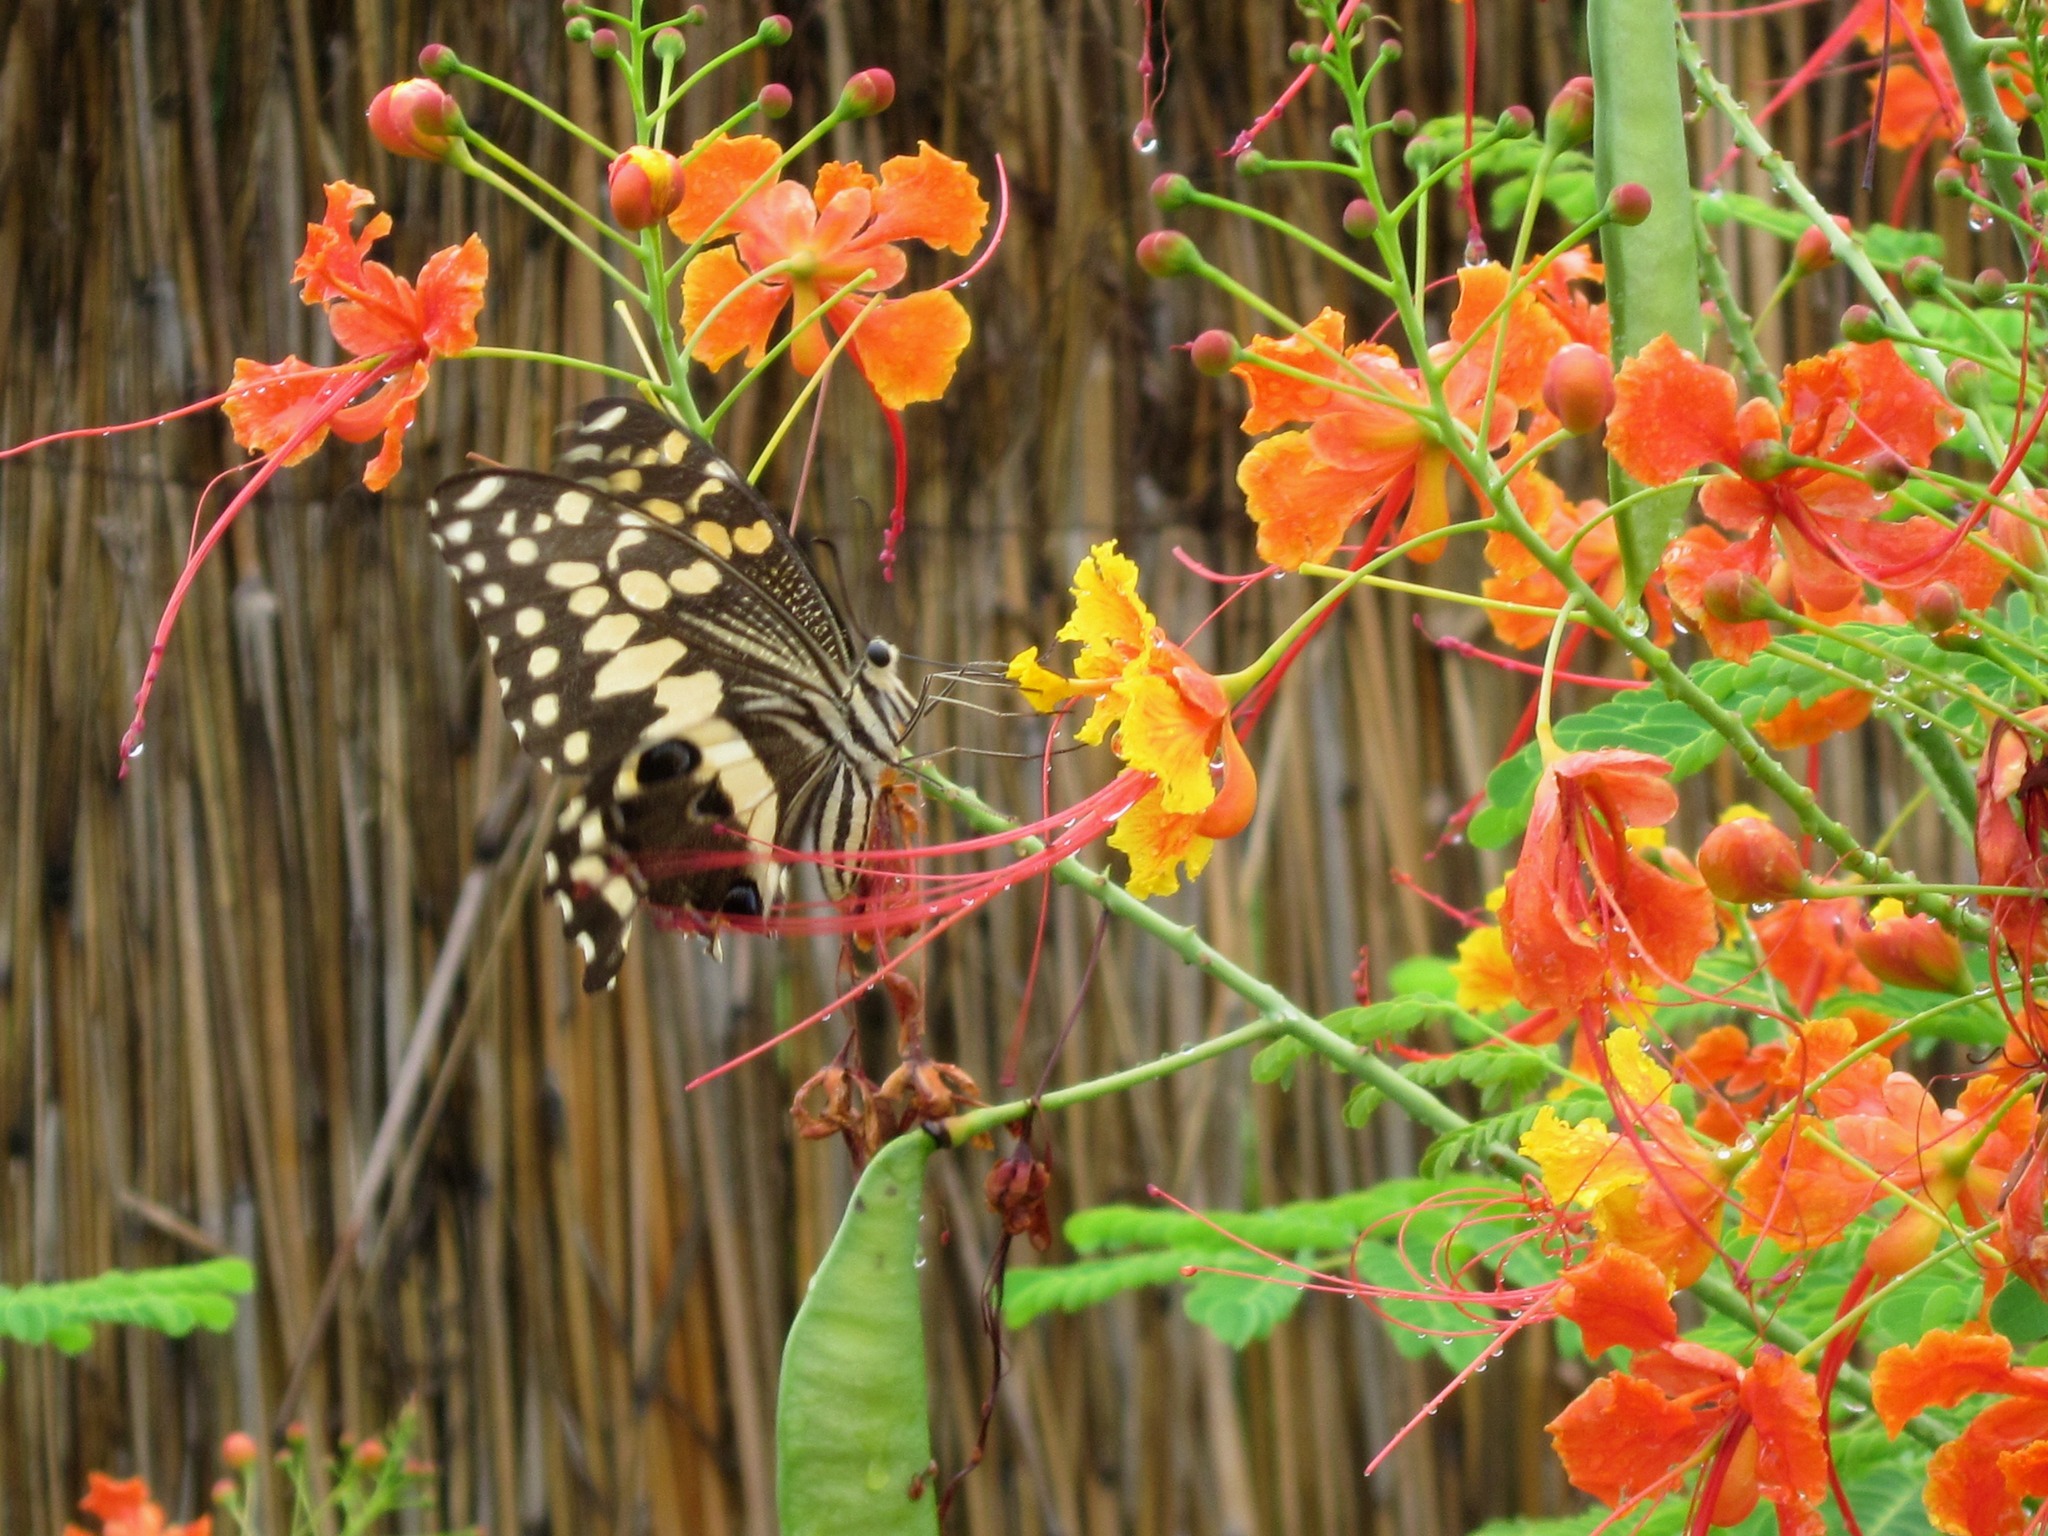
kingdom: Animalia
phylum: Arthropoda
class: Insecta
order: Lepidoptera
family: Papilionidae
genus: Papilio
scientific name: Papilio demodocus
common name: Christmas butterfly
